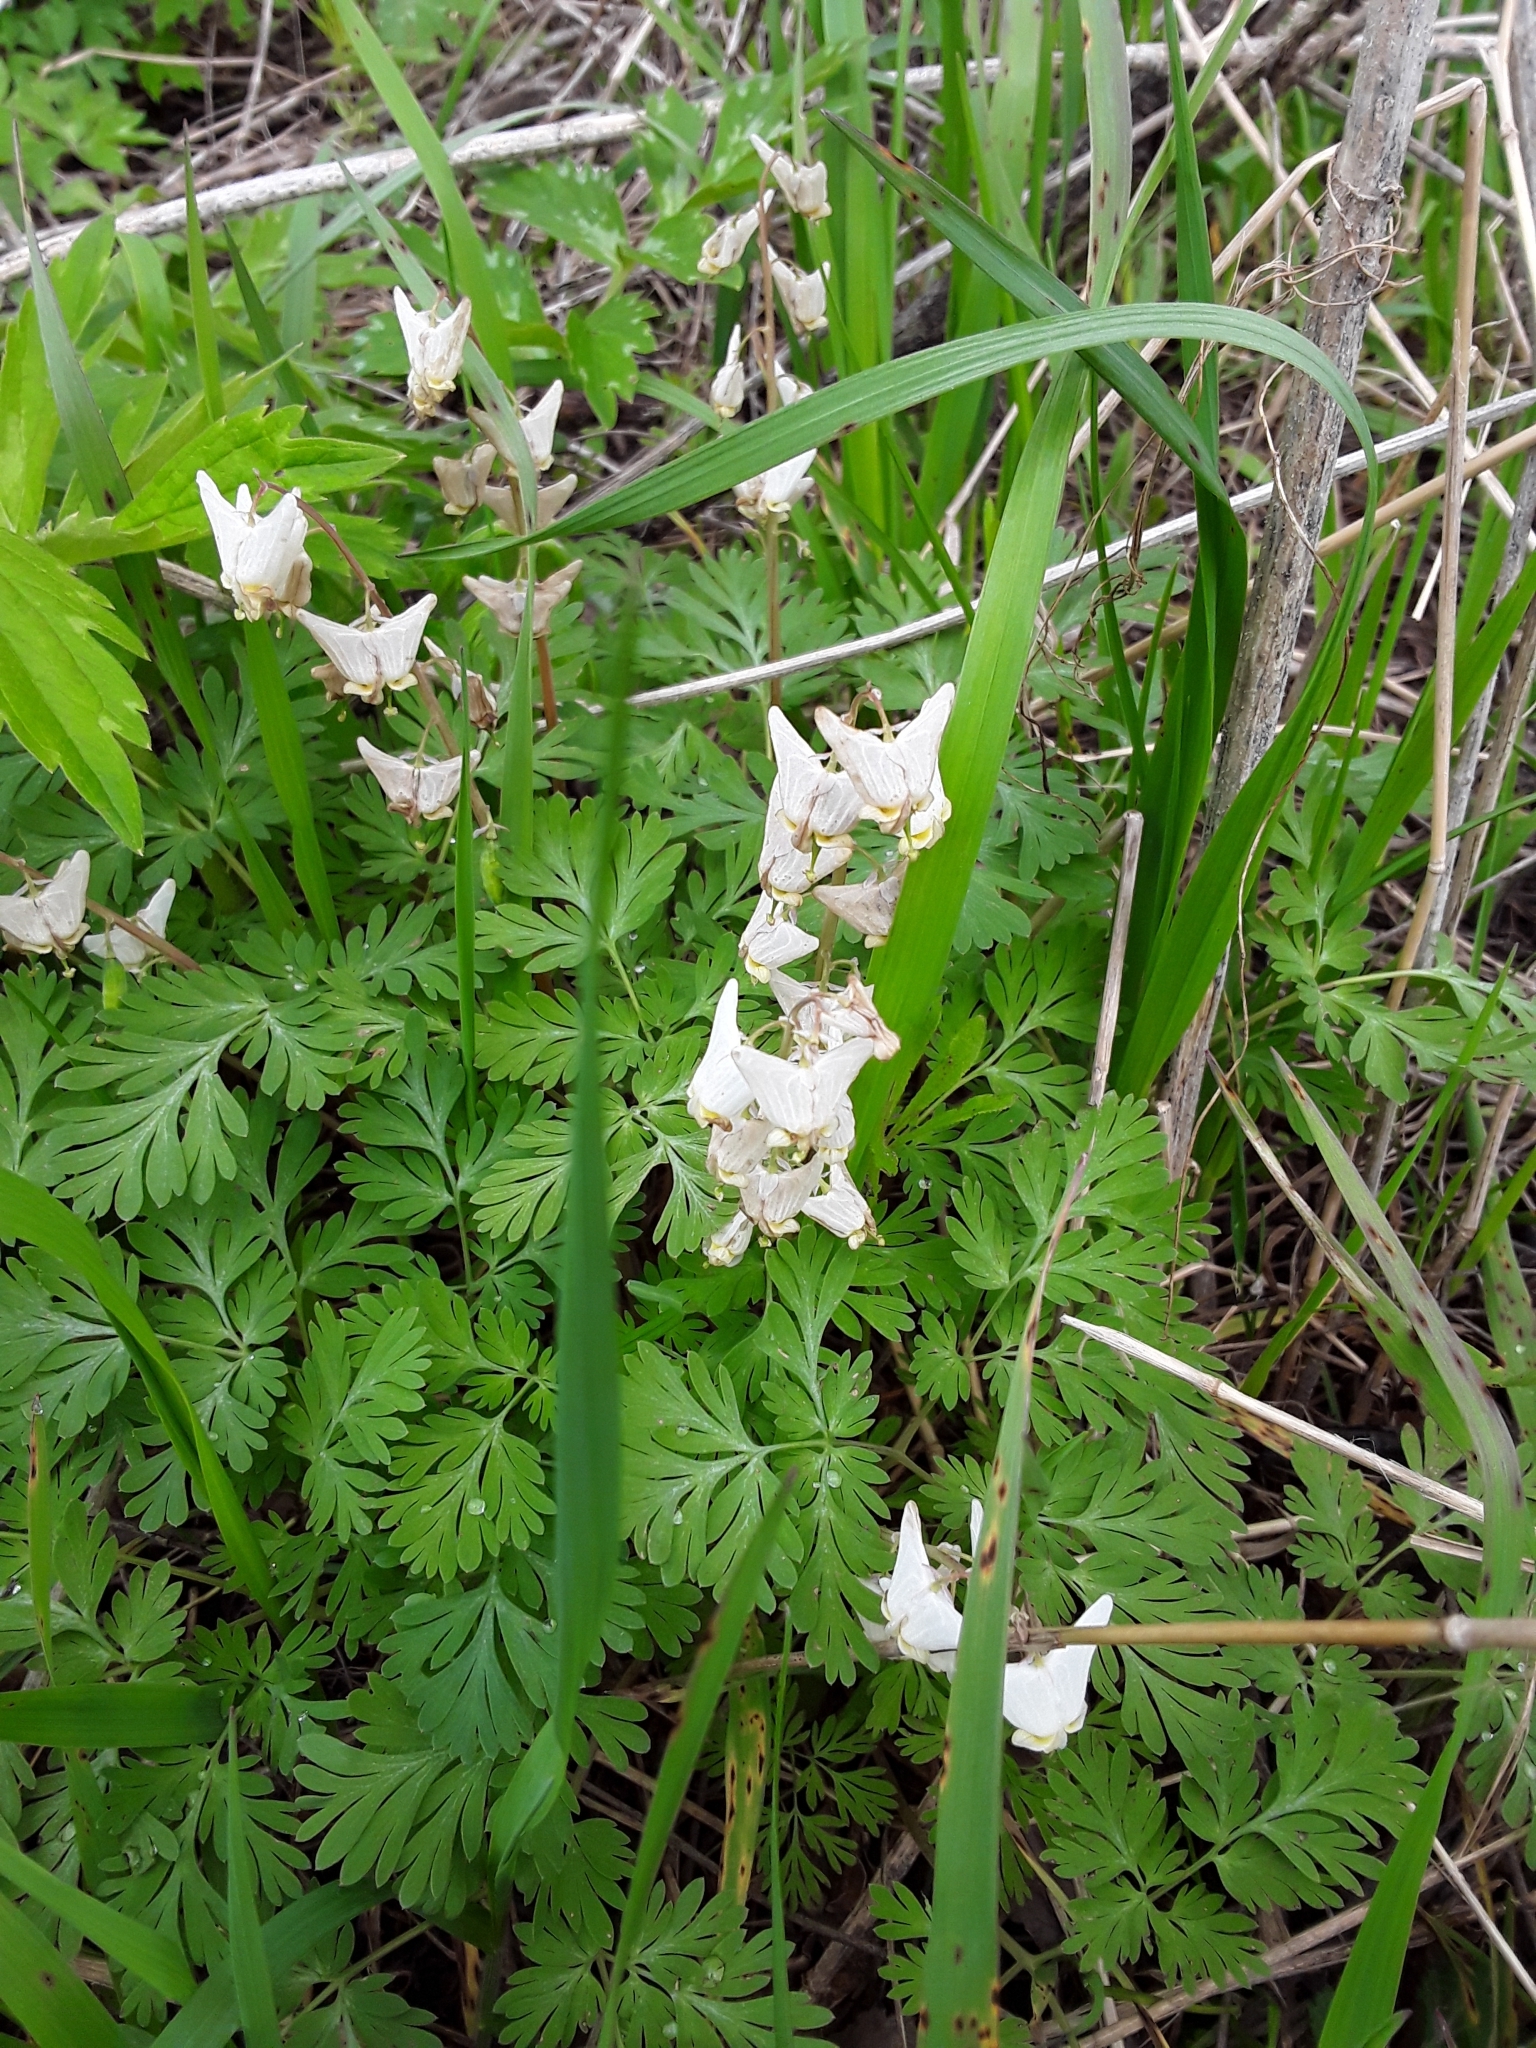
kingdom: Plantae
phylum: Tracheophyta
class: Magnoliopsida
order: Ranunculales
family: Papaveraceae
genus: Dicentra
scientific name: Dicentra cucullaria
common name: Dutchman's breeches
